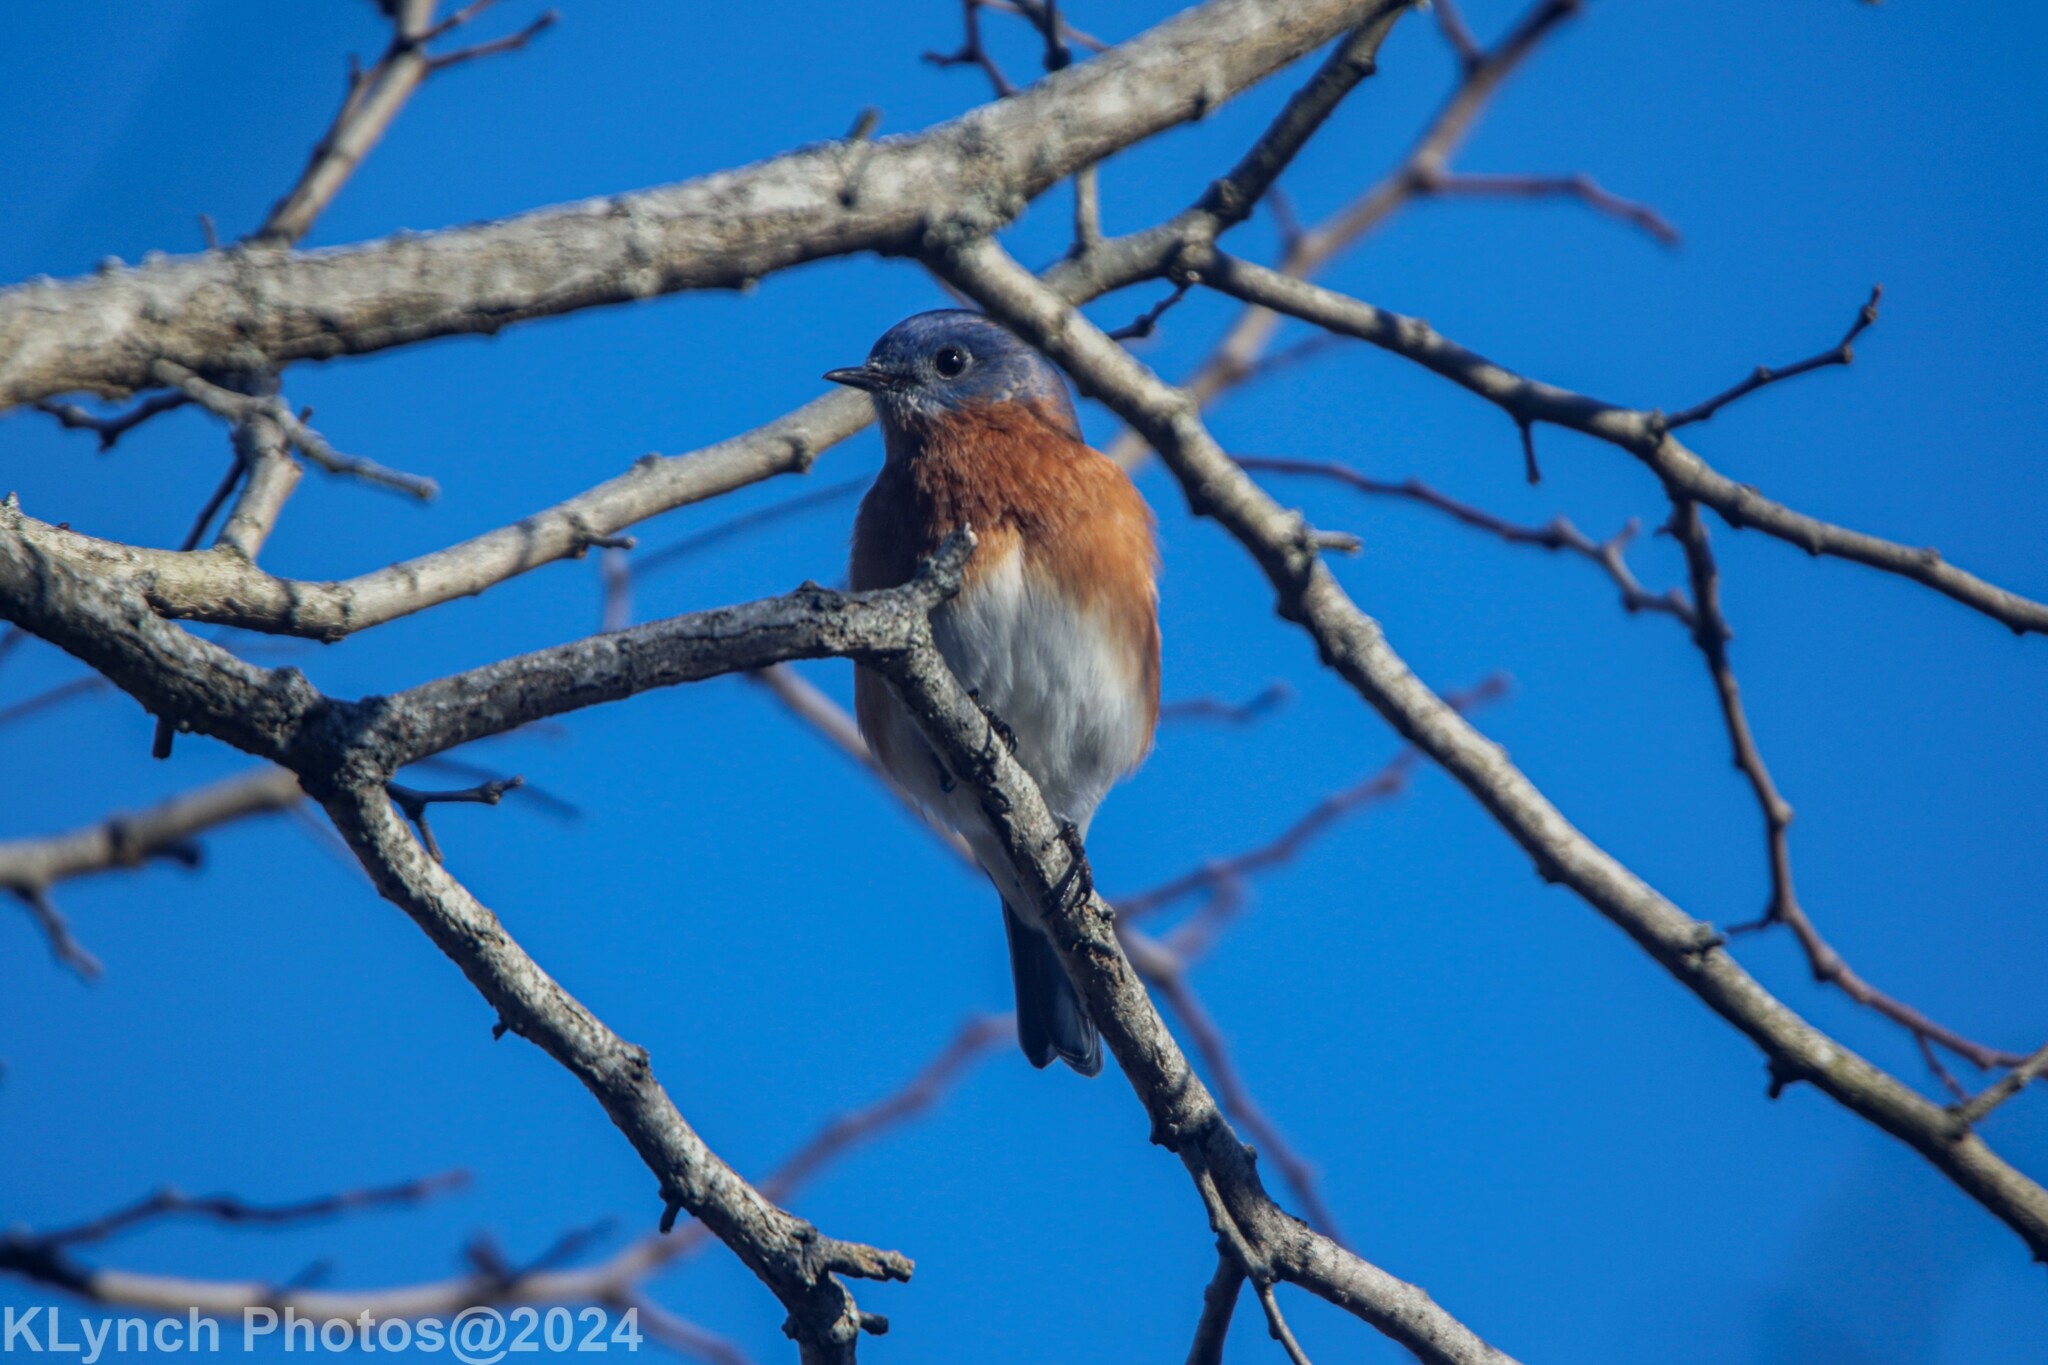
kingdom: Animalia
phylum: Chordata
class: Aves
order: Passeriformes
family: Turdidae
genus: Sialia
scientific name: Sialia sialis
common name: Eastern bluebird
